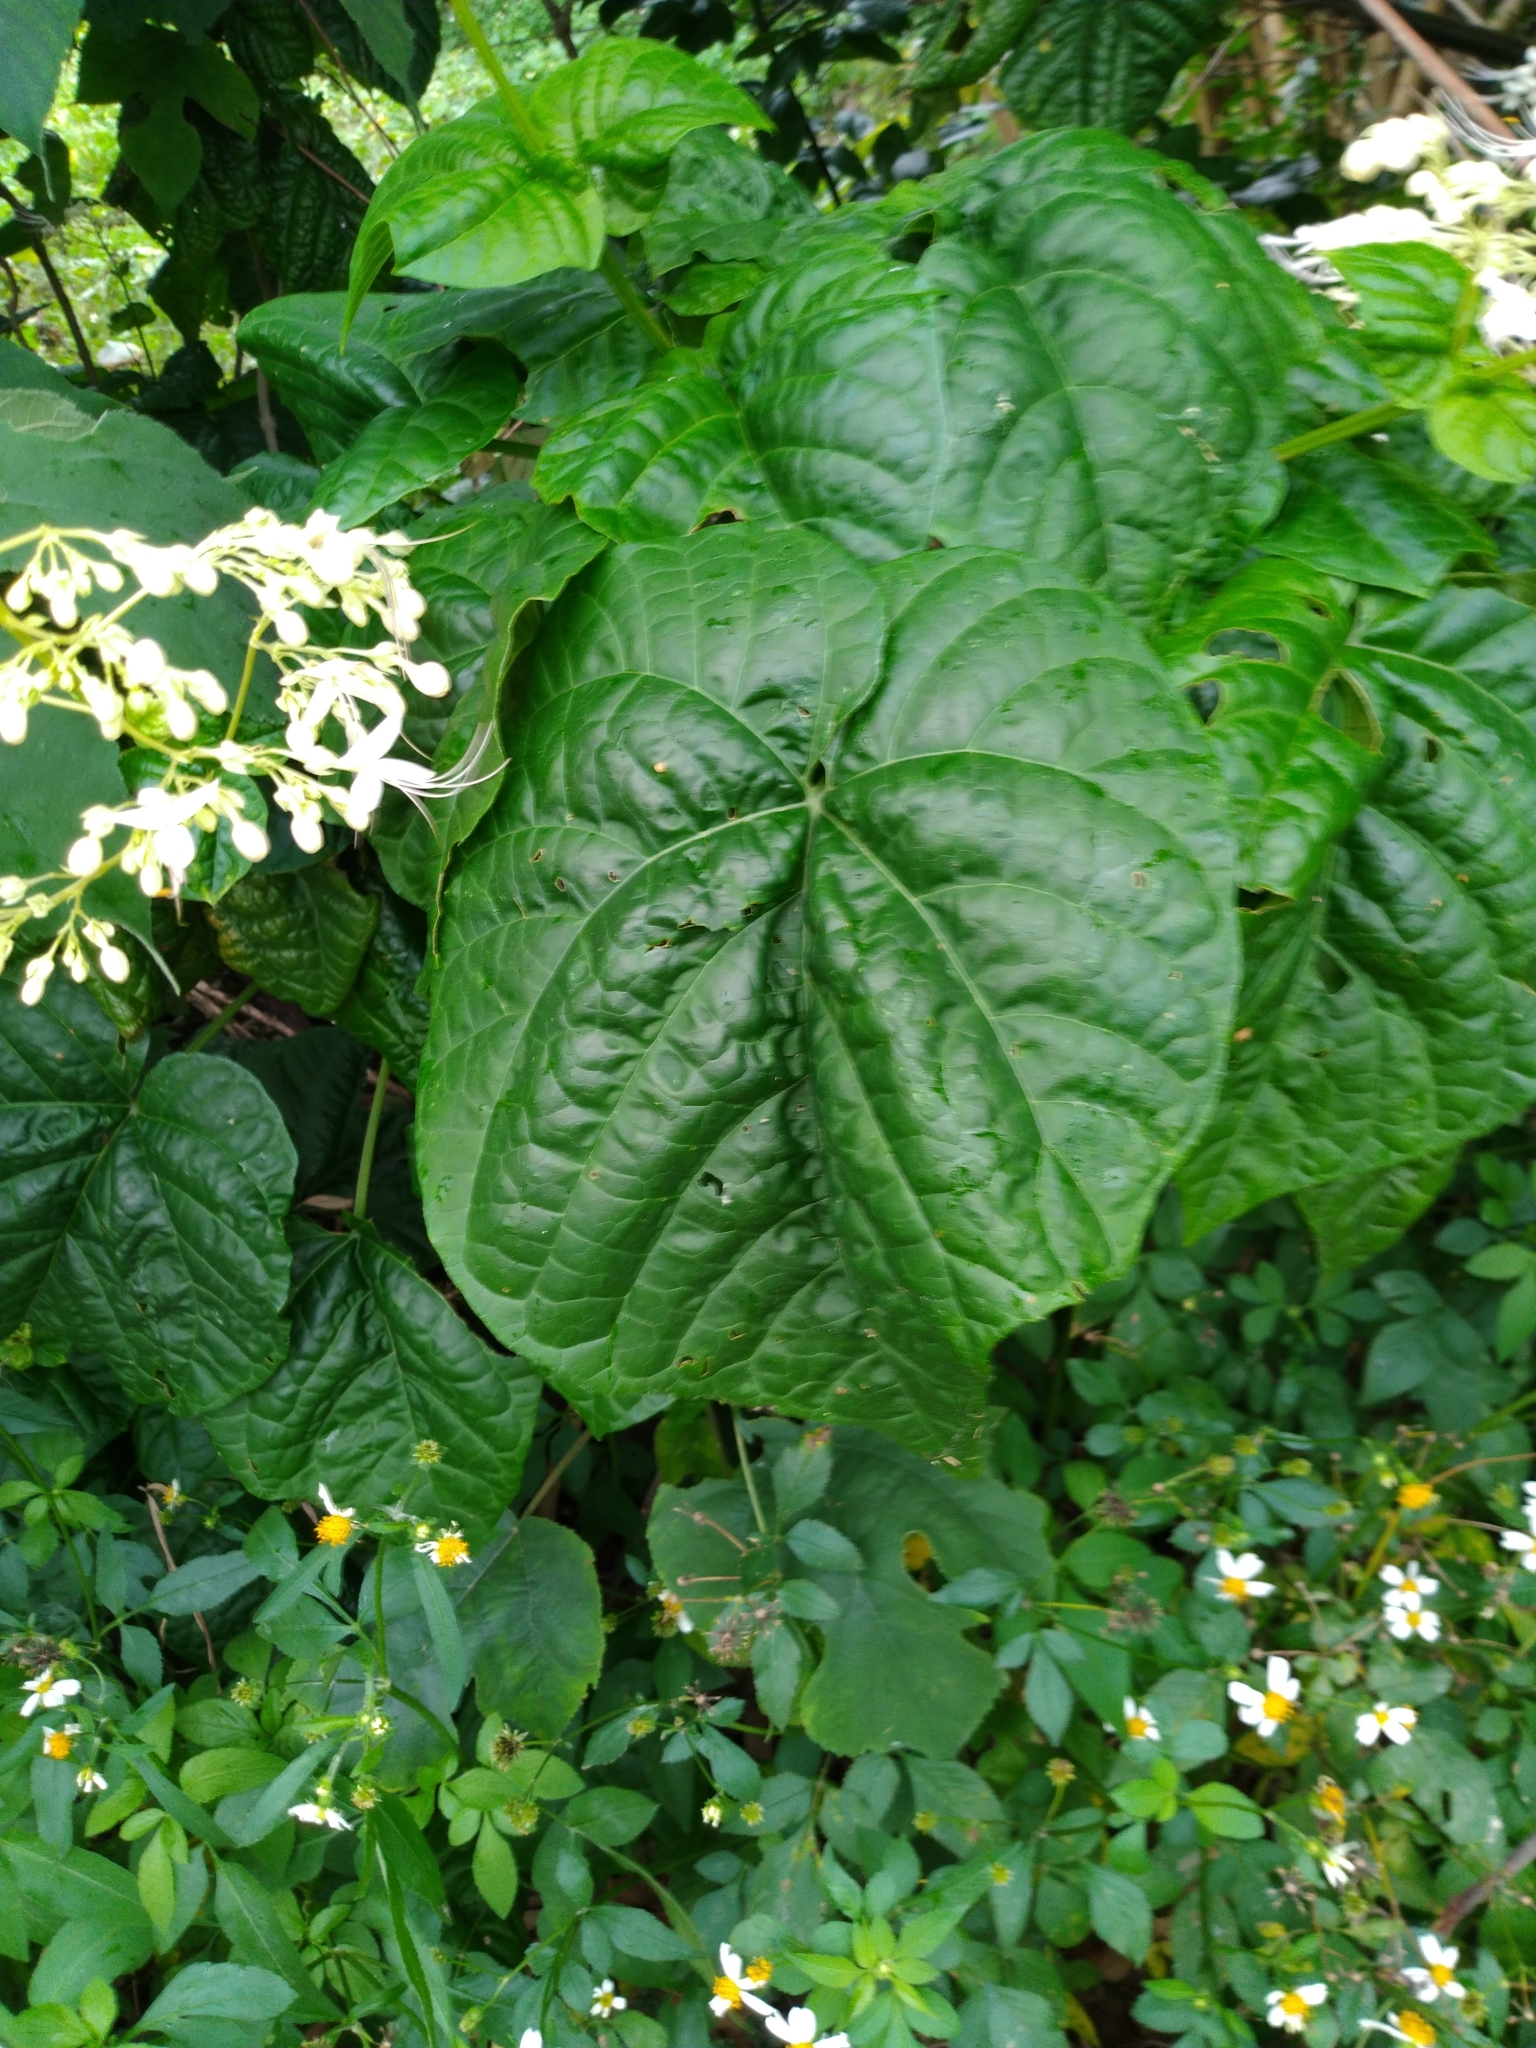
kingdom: Plantae
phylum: Tracheophyta
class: Magnoliopsida
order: Lamiales
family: Lamiaceae
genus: Clerodendrum
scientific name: Clerodendrum japonicum
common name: Japanese glorybower
